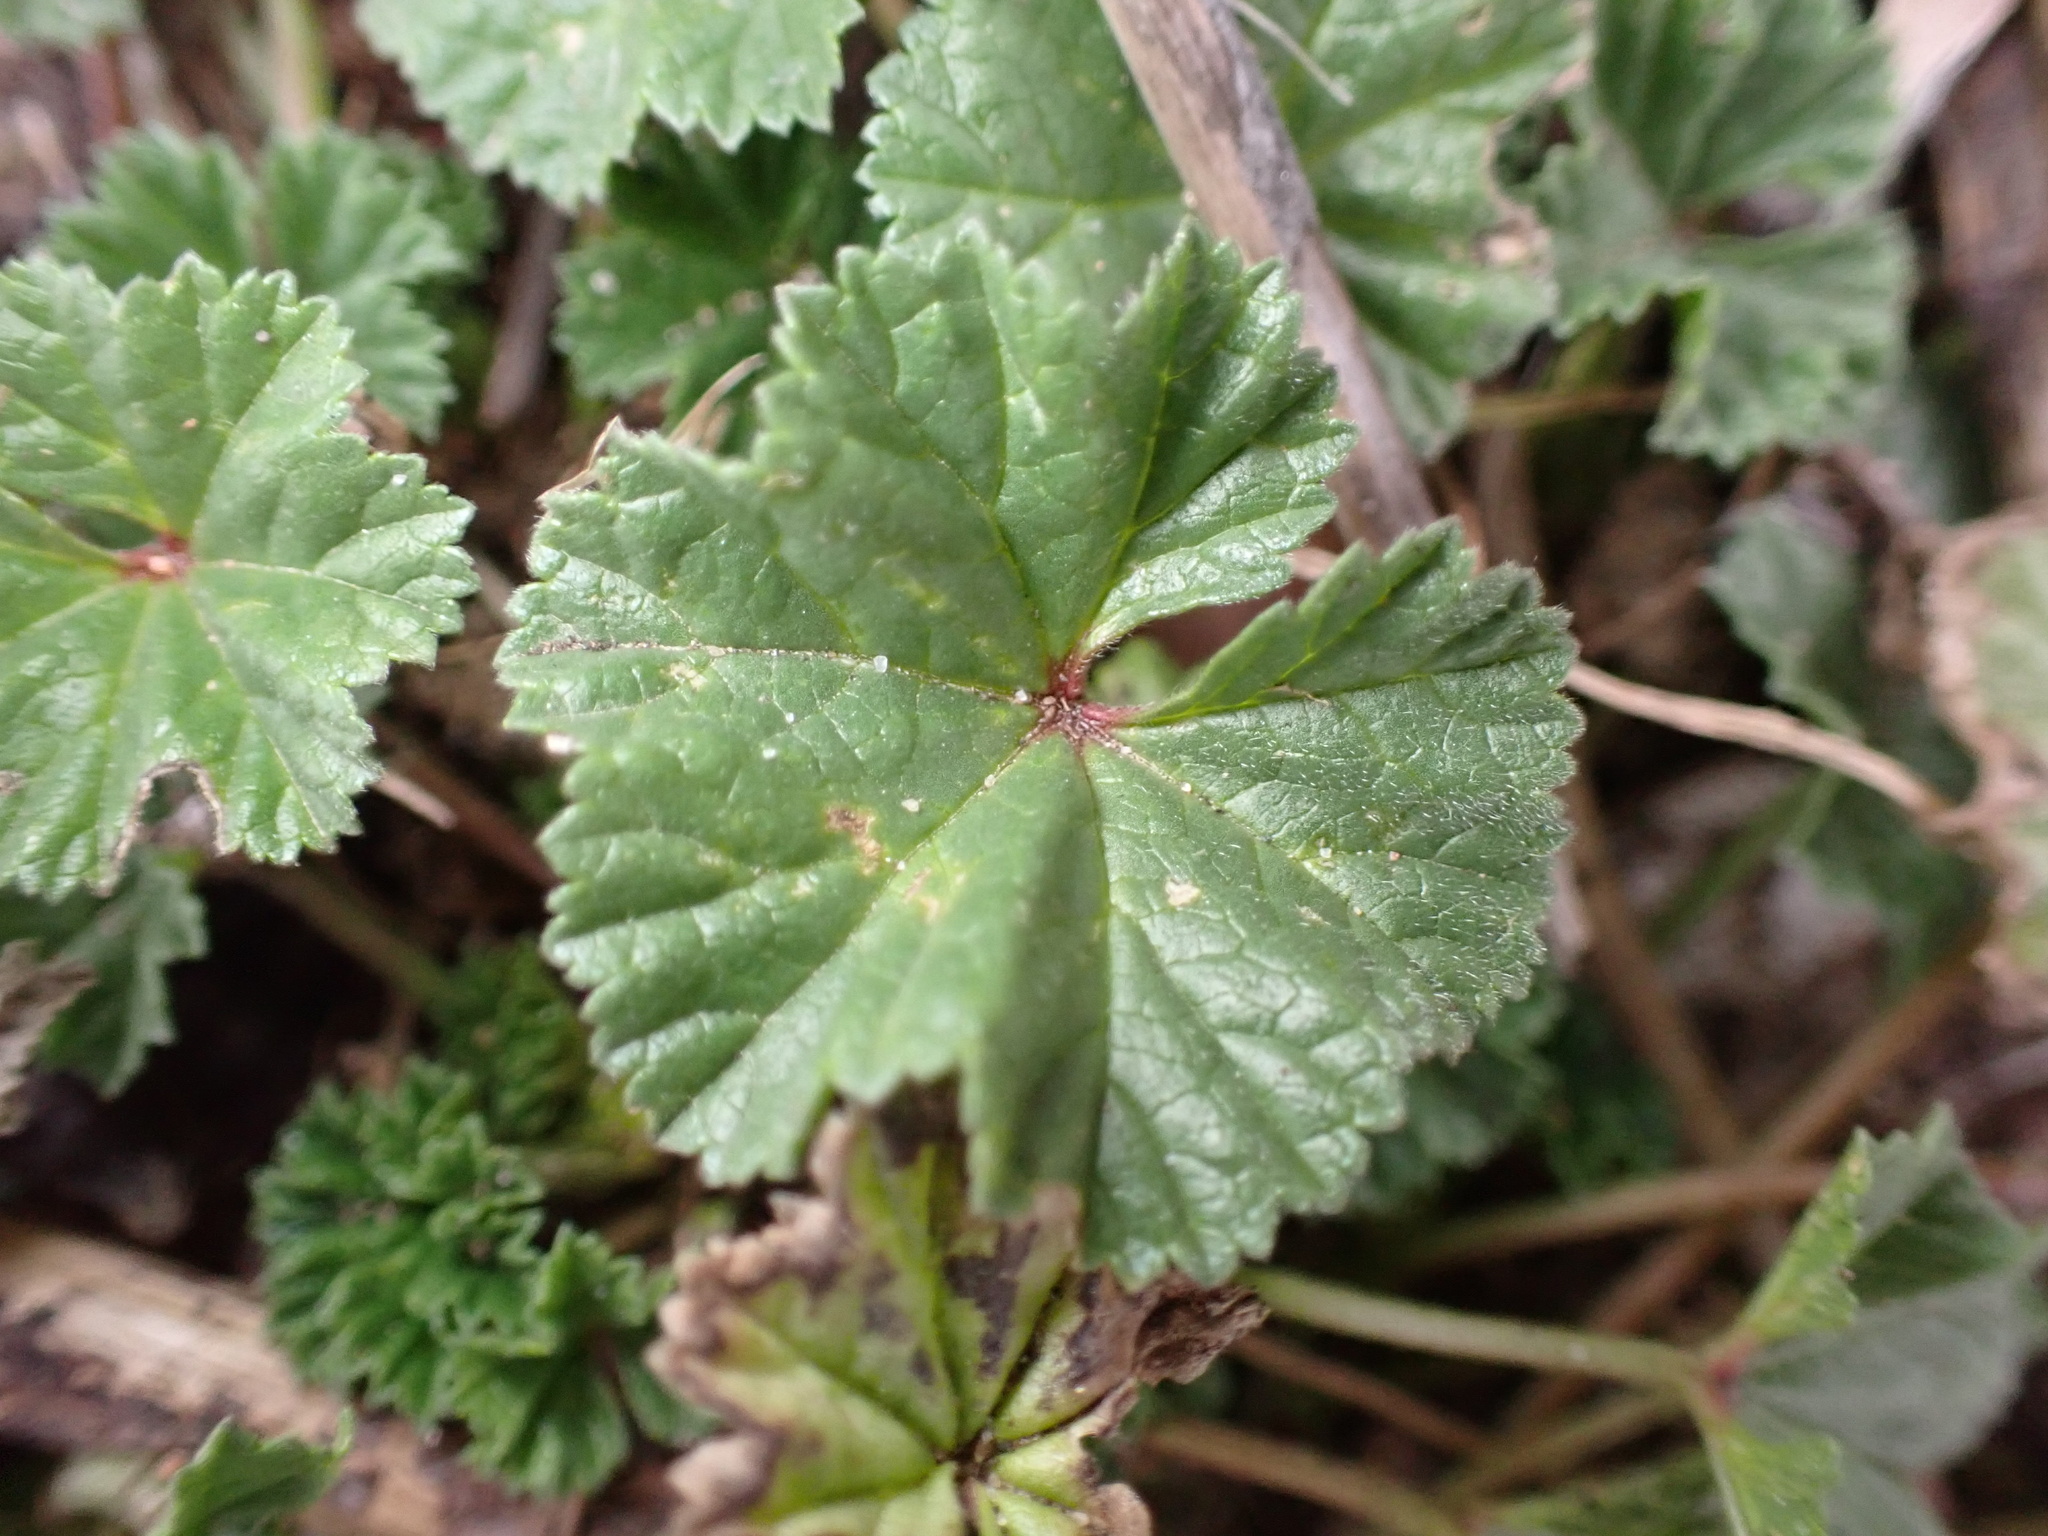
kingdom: Plantae
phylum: Tracheophyta
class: Magnoliopsida
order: Malvales
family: Malvaceae
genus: Malva
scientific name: Malva neglecta
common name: Common mallow
